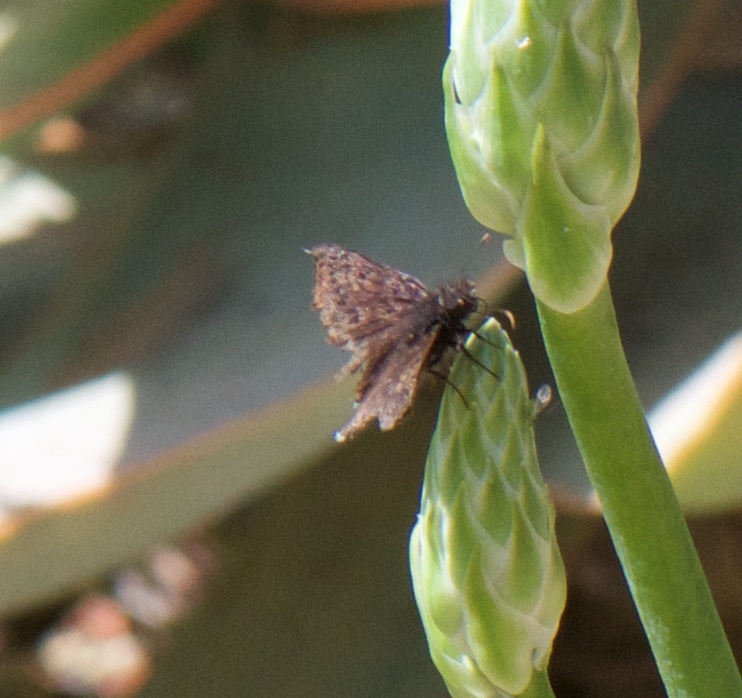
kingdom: Animalia
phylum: Arthropoda
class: Insecta
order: Lepidoptera
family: Hesperiidae
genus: Erynnis
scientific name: Erynnis tristis
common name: Mournful duskywing
